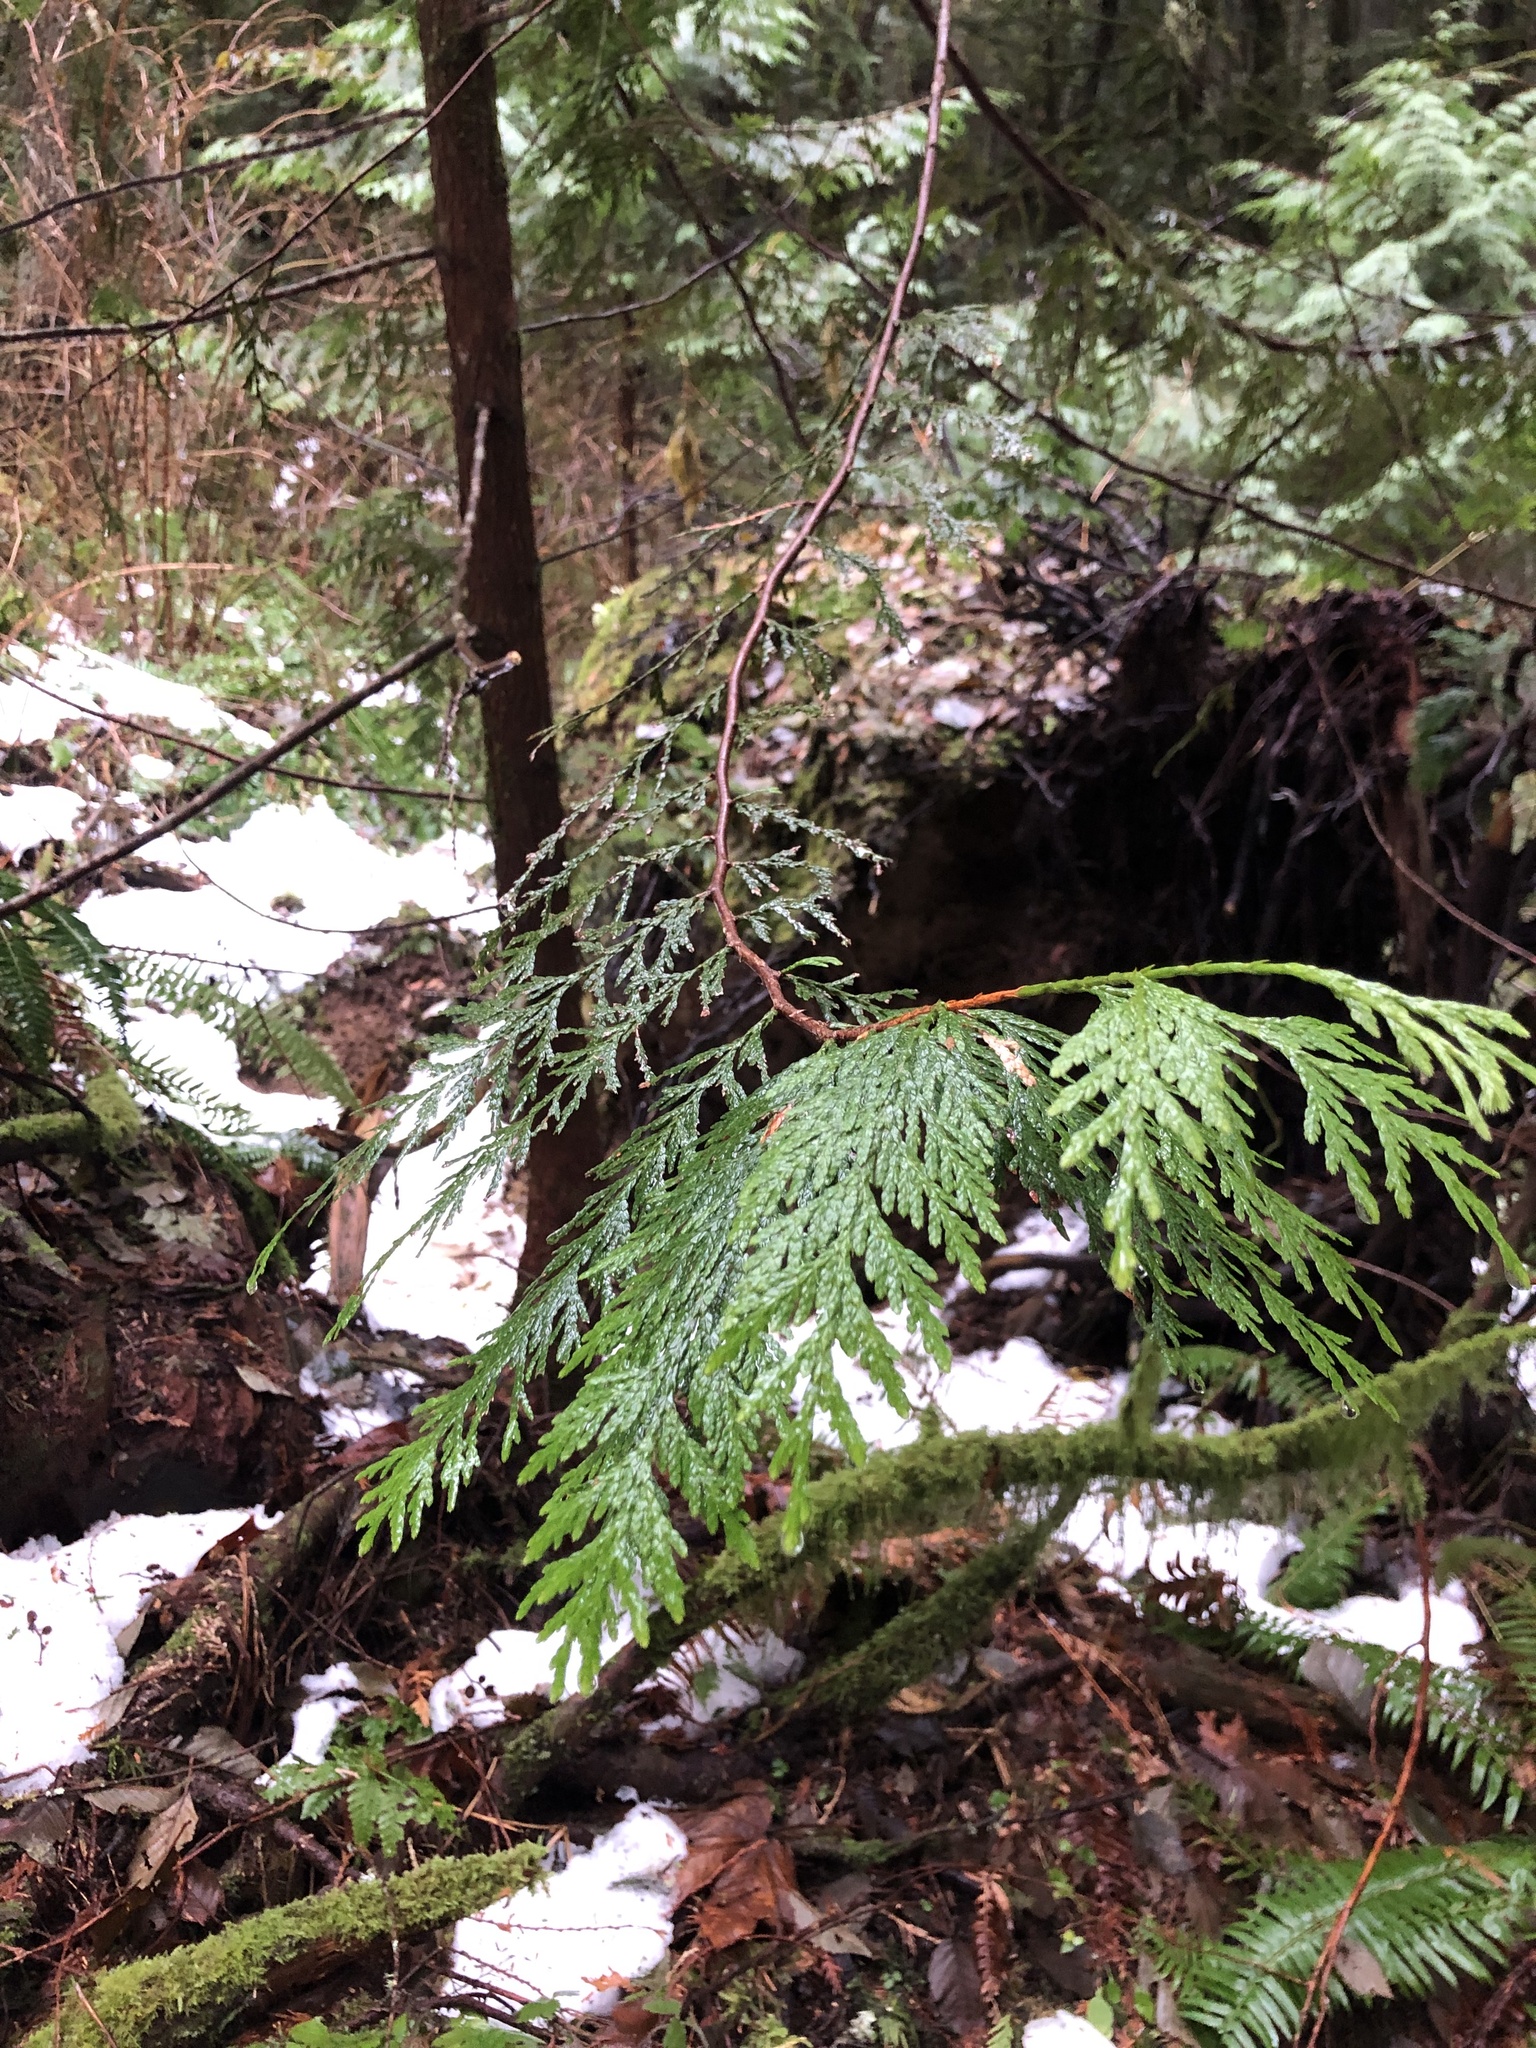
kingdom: Plantae
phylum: Tracheophyta
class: Pinopsida
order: Pinales
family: Cupressaceae
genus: Thuja
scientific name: Thuja plicata
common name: Western red-cedar
